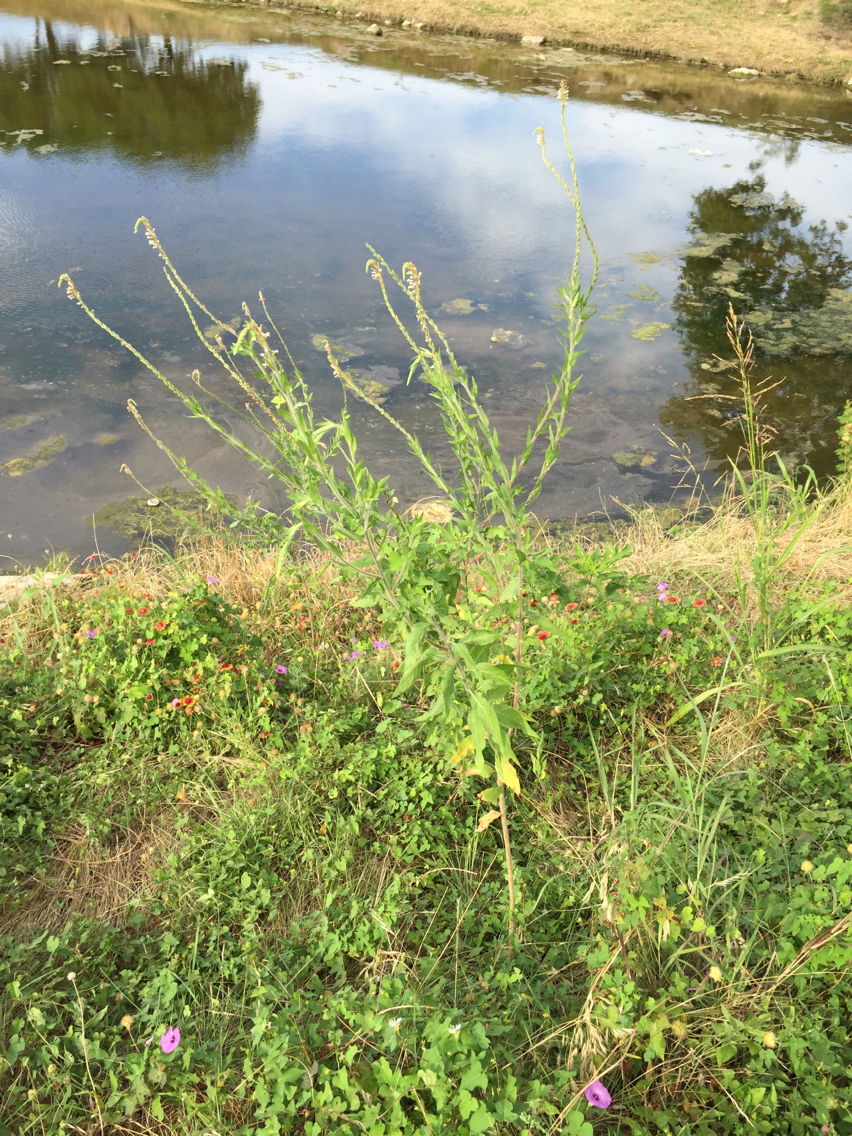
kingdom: Plantae
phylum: Tracheophyta
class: Magnoliopsida
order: Myrtales
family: Onagraceae
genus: Oenothera
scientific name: Oenothera curtiflora
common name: Velvetweed
